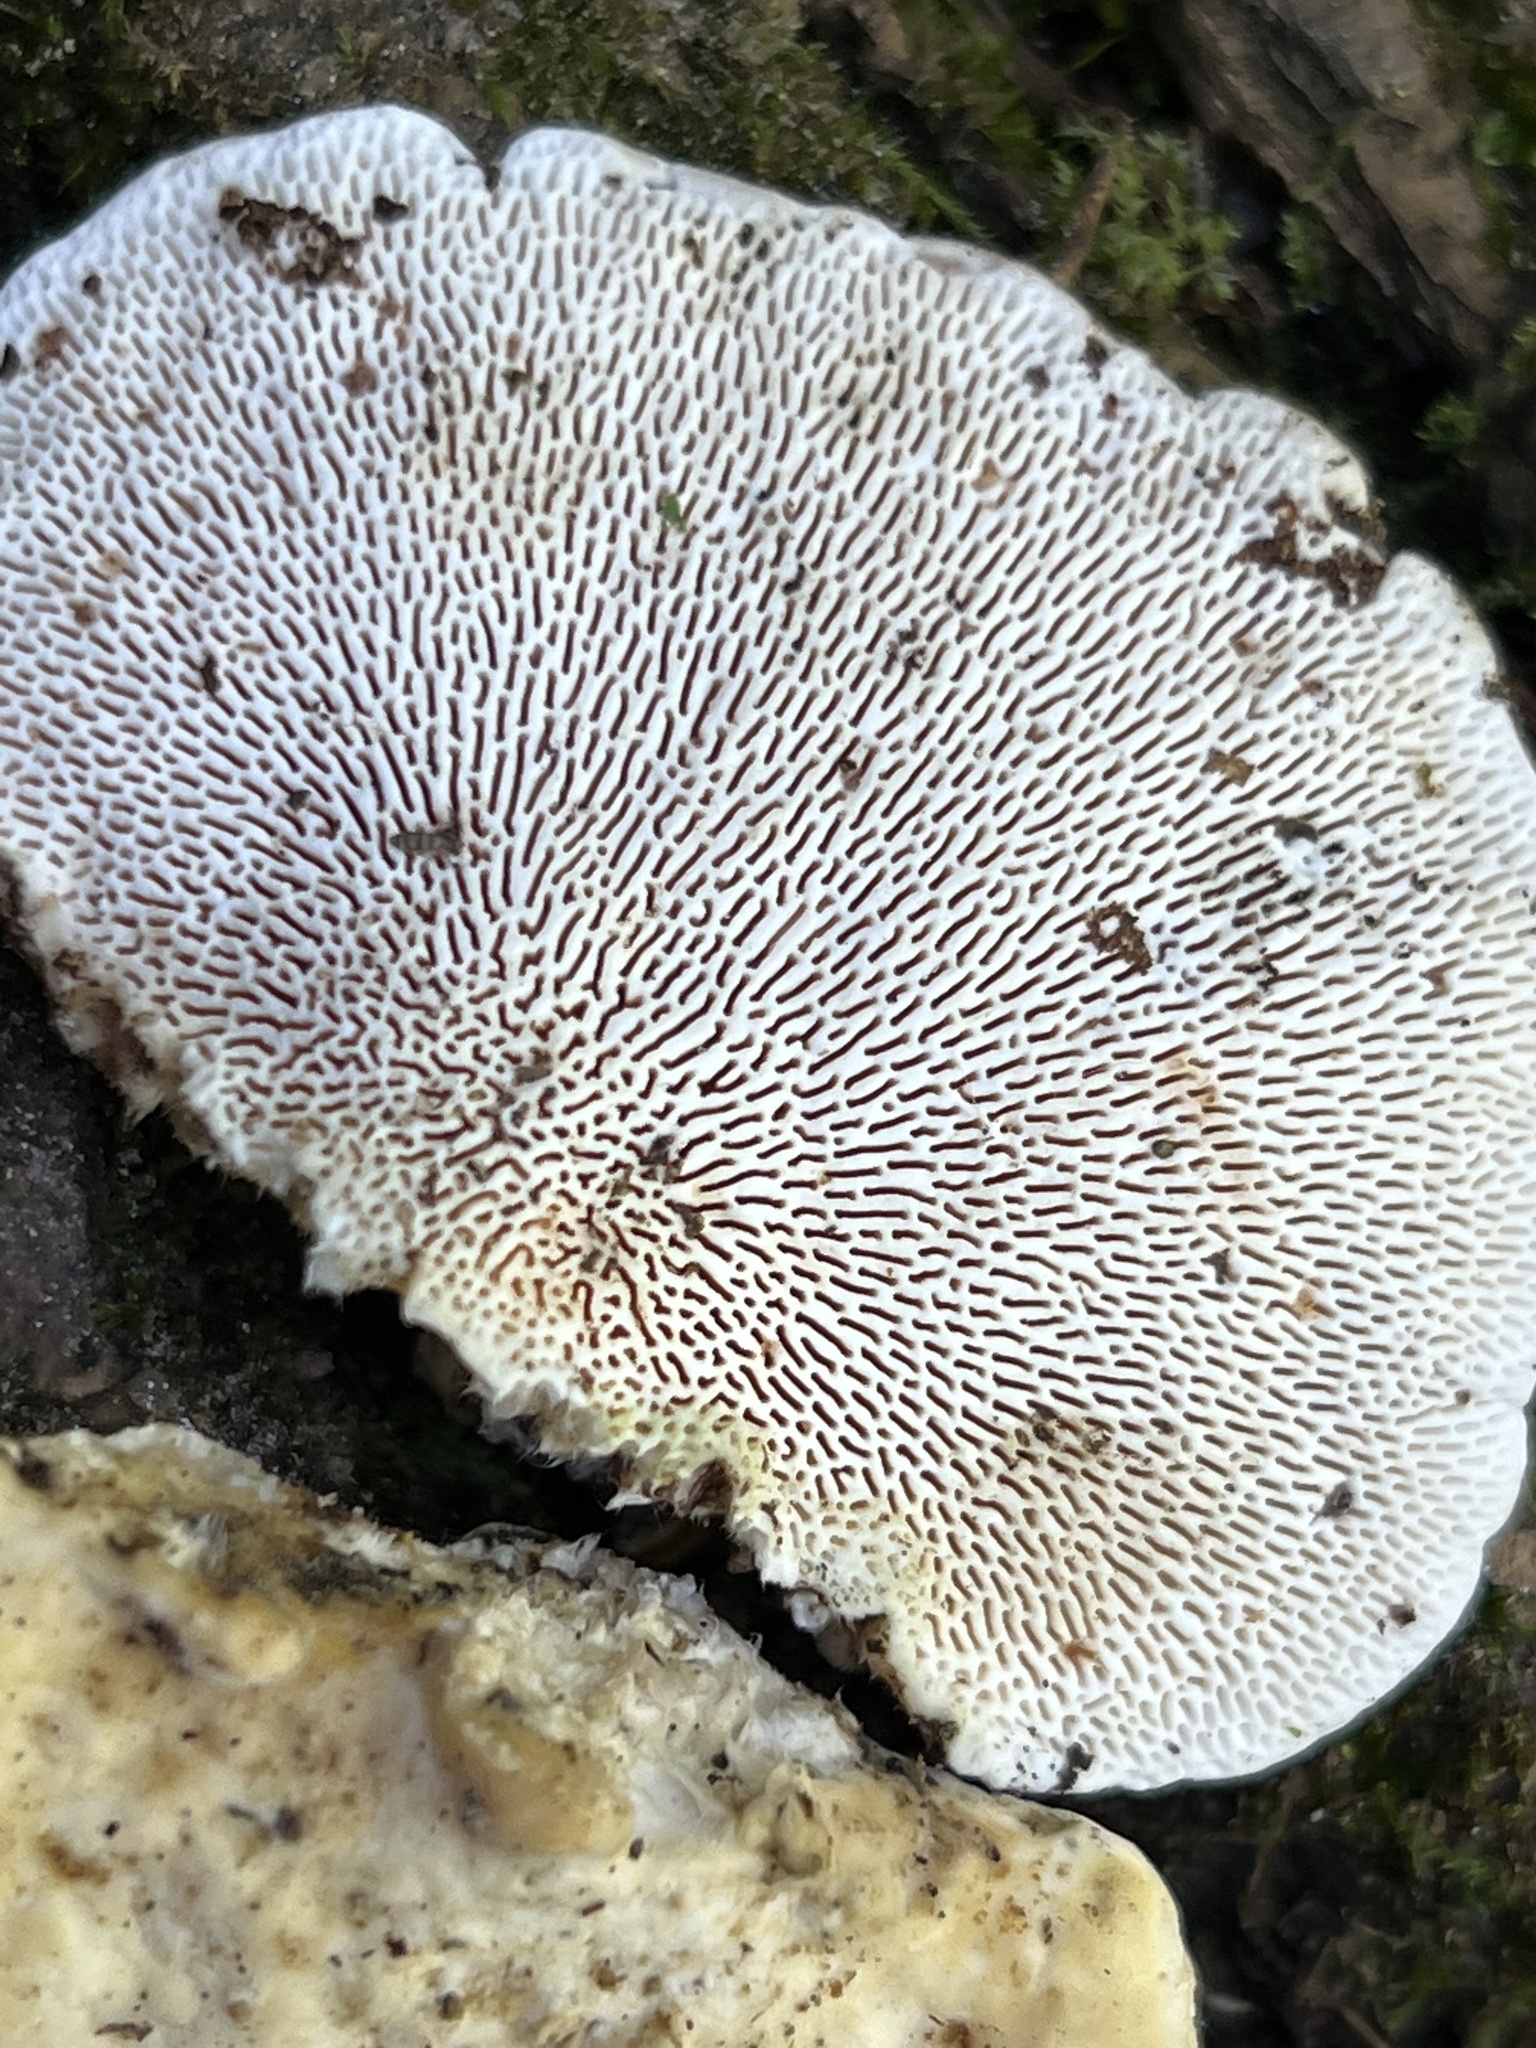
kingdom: Fungi
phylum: Basidiomycota
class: Agaricomycetes
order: Polyporales
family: Polyporaceae
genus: Trametes
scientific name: Trametes gibbosa
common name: Lumpy bracket
